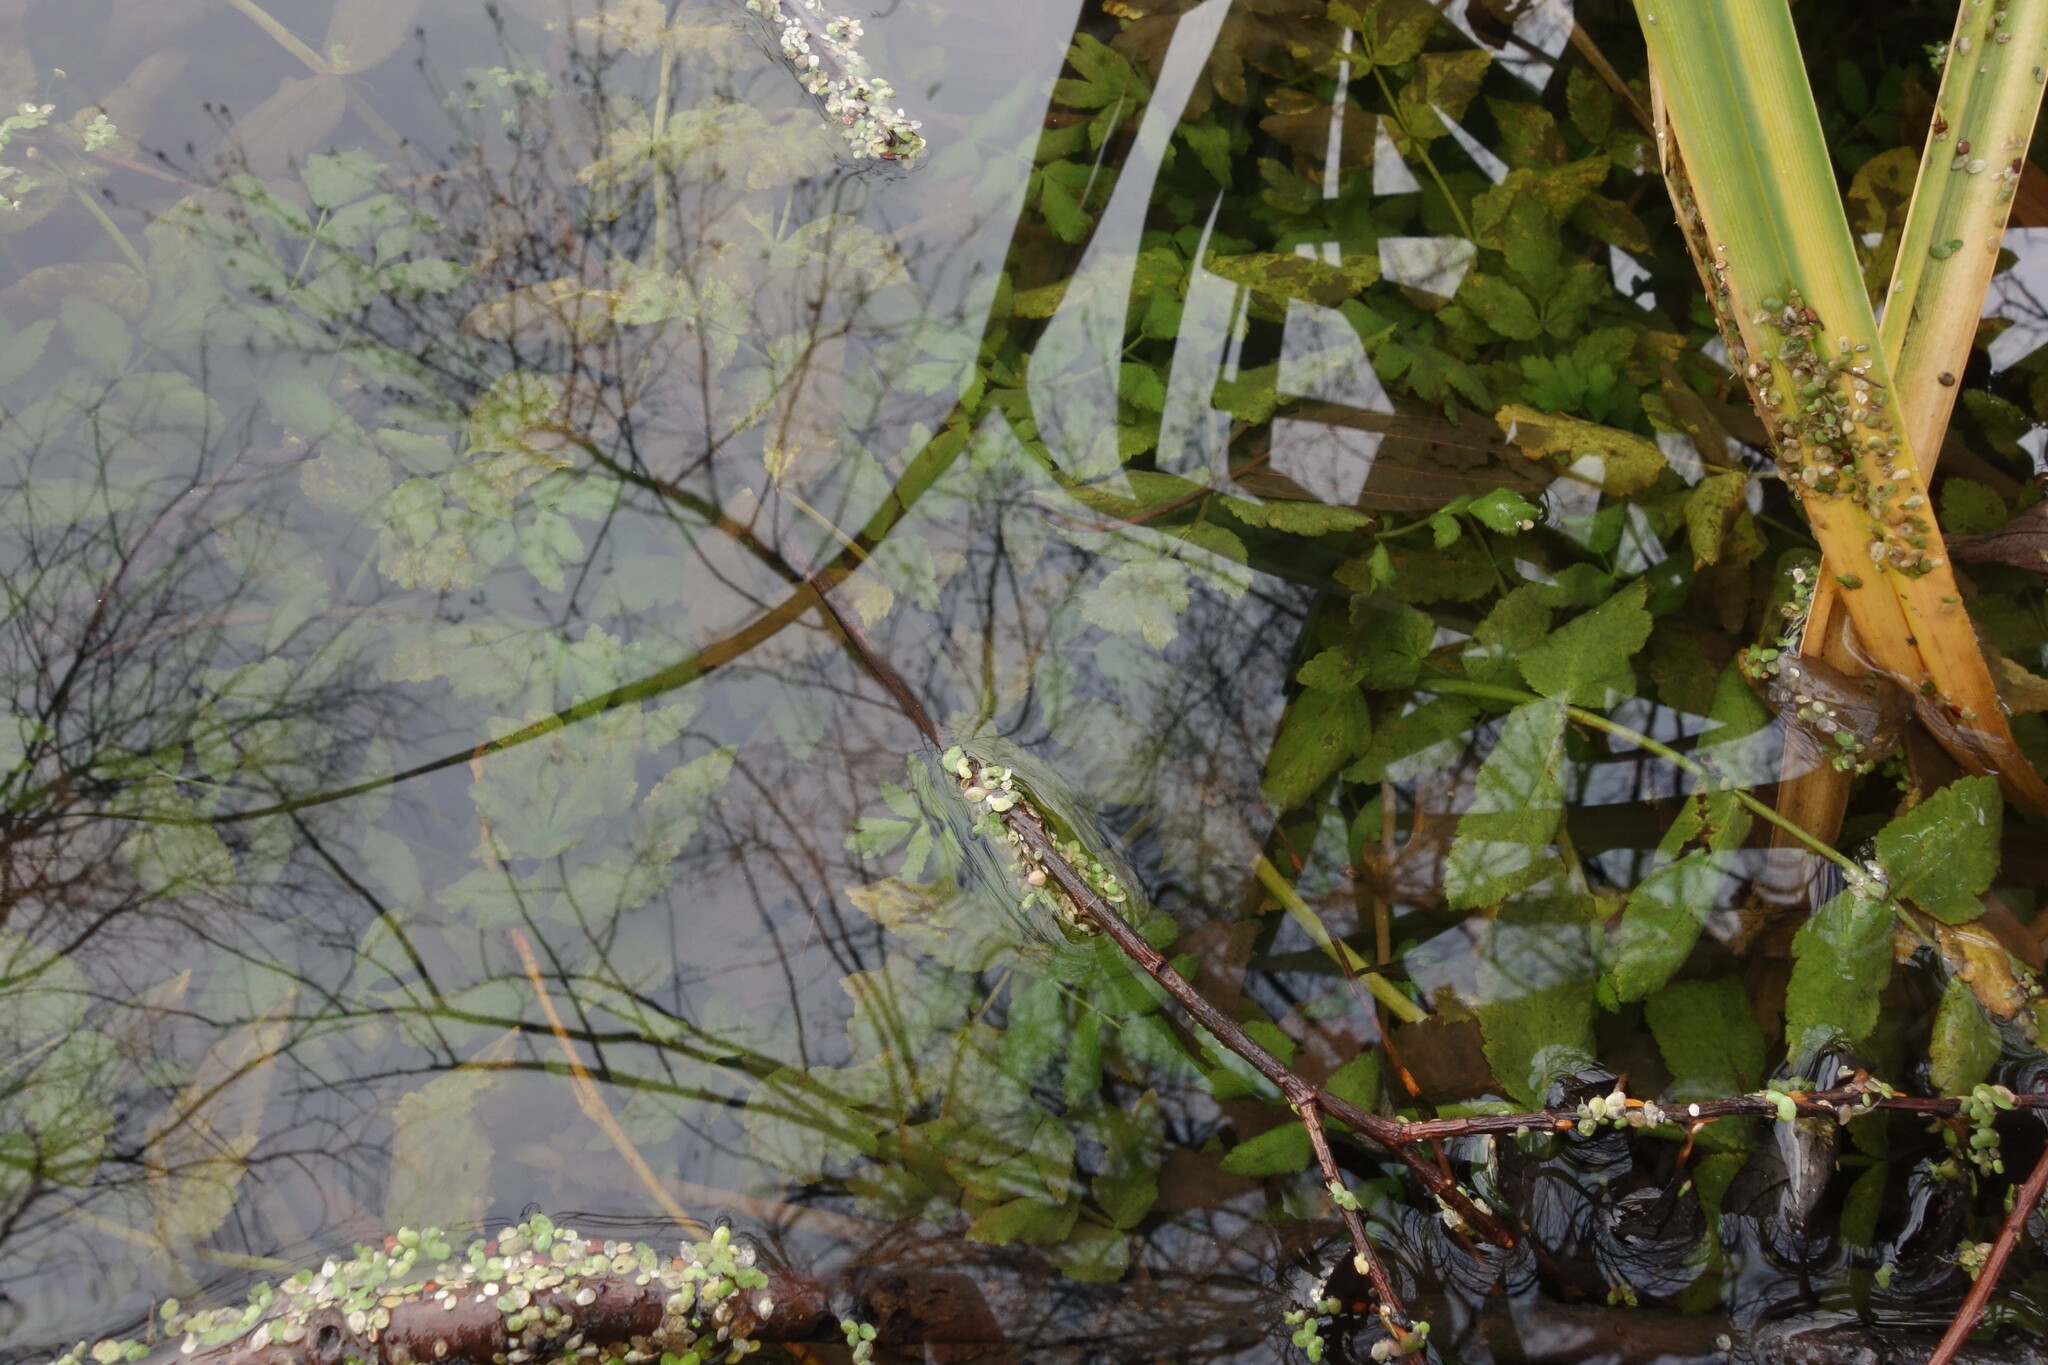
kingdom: Plantae
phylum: Tracheophyta
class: Magnoliopsida
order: Apiales
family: Apiaceae
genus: Sium
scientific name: Sium latifolium
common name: Greater water-parsnip
